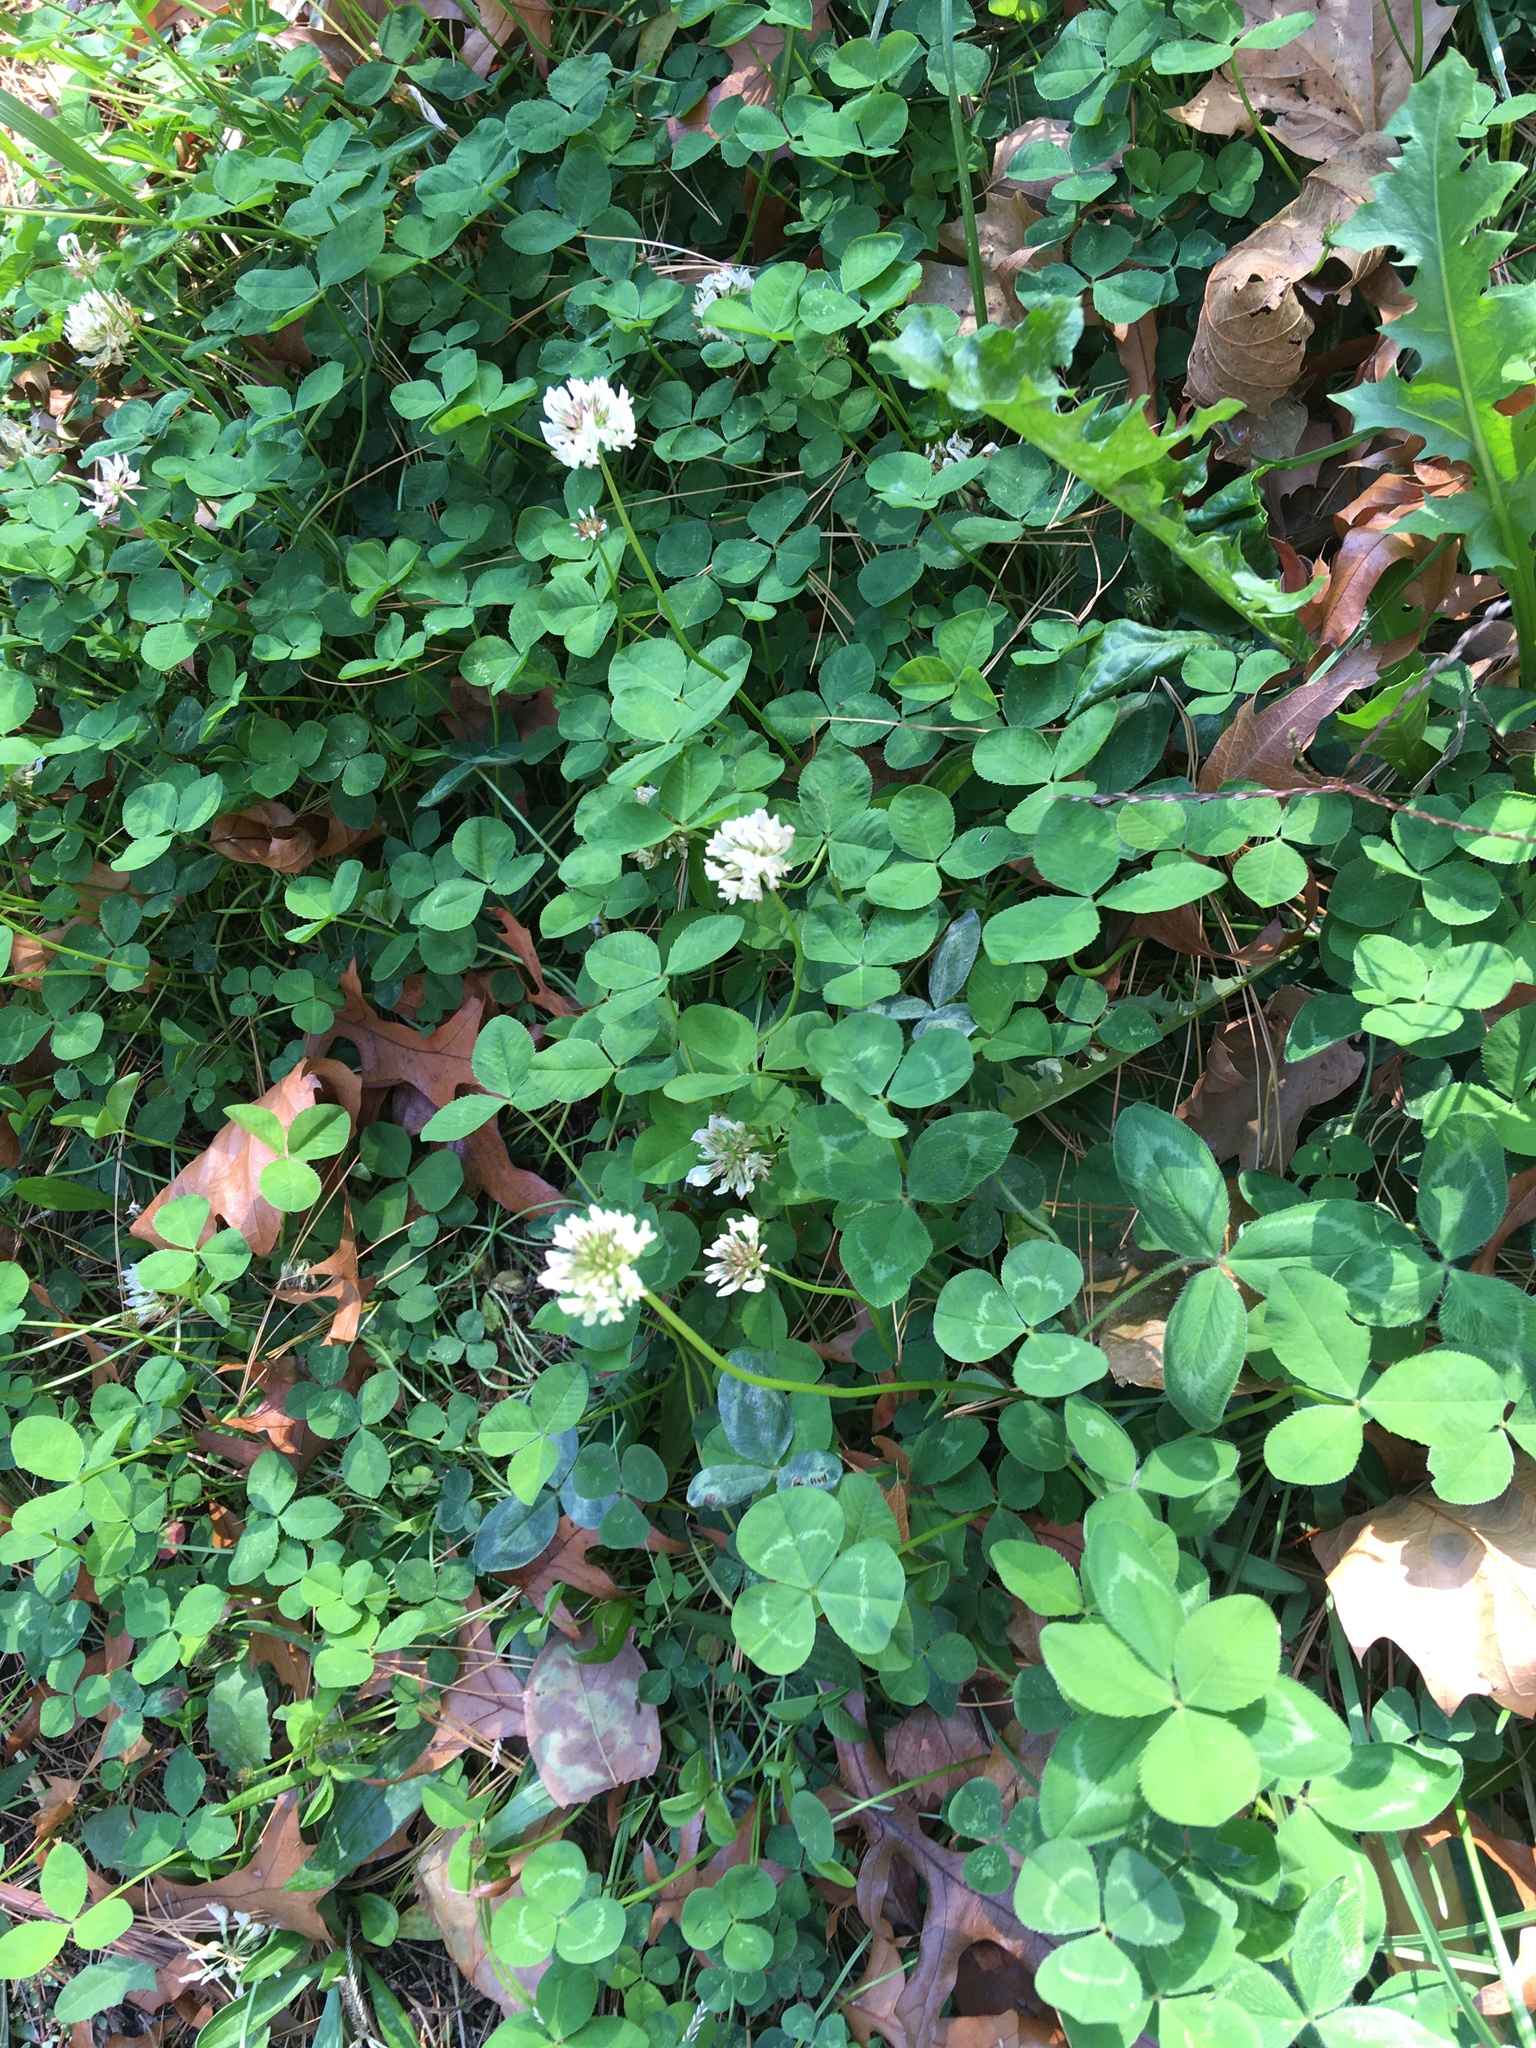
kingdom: Plantae
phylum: Tracheophyta
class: Magnoliopsida
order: Fabales
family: Fabaceae
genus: Trifolium
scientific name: Trifolium repens
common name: White clover
